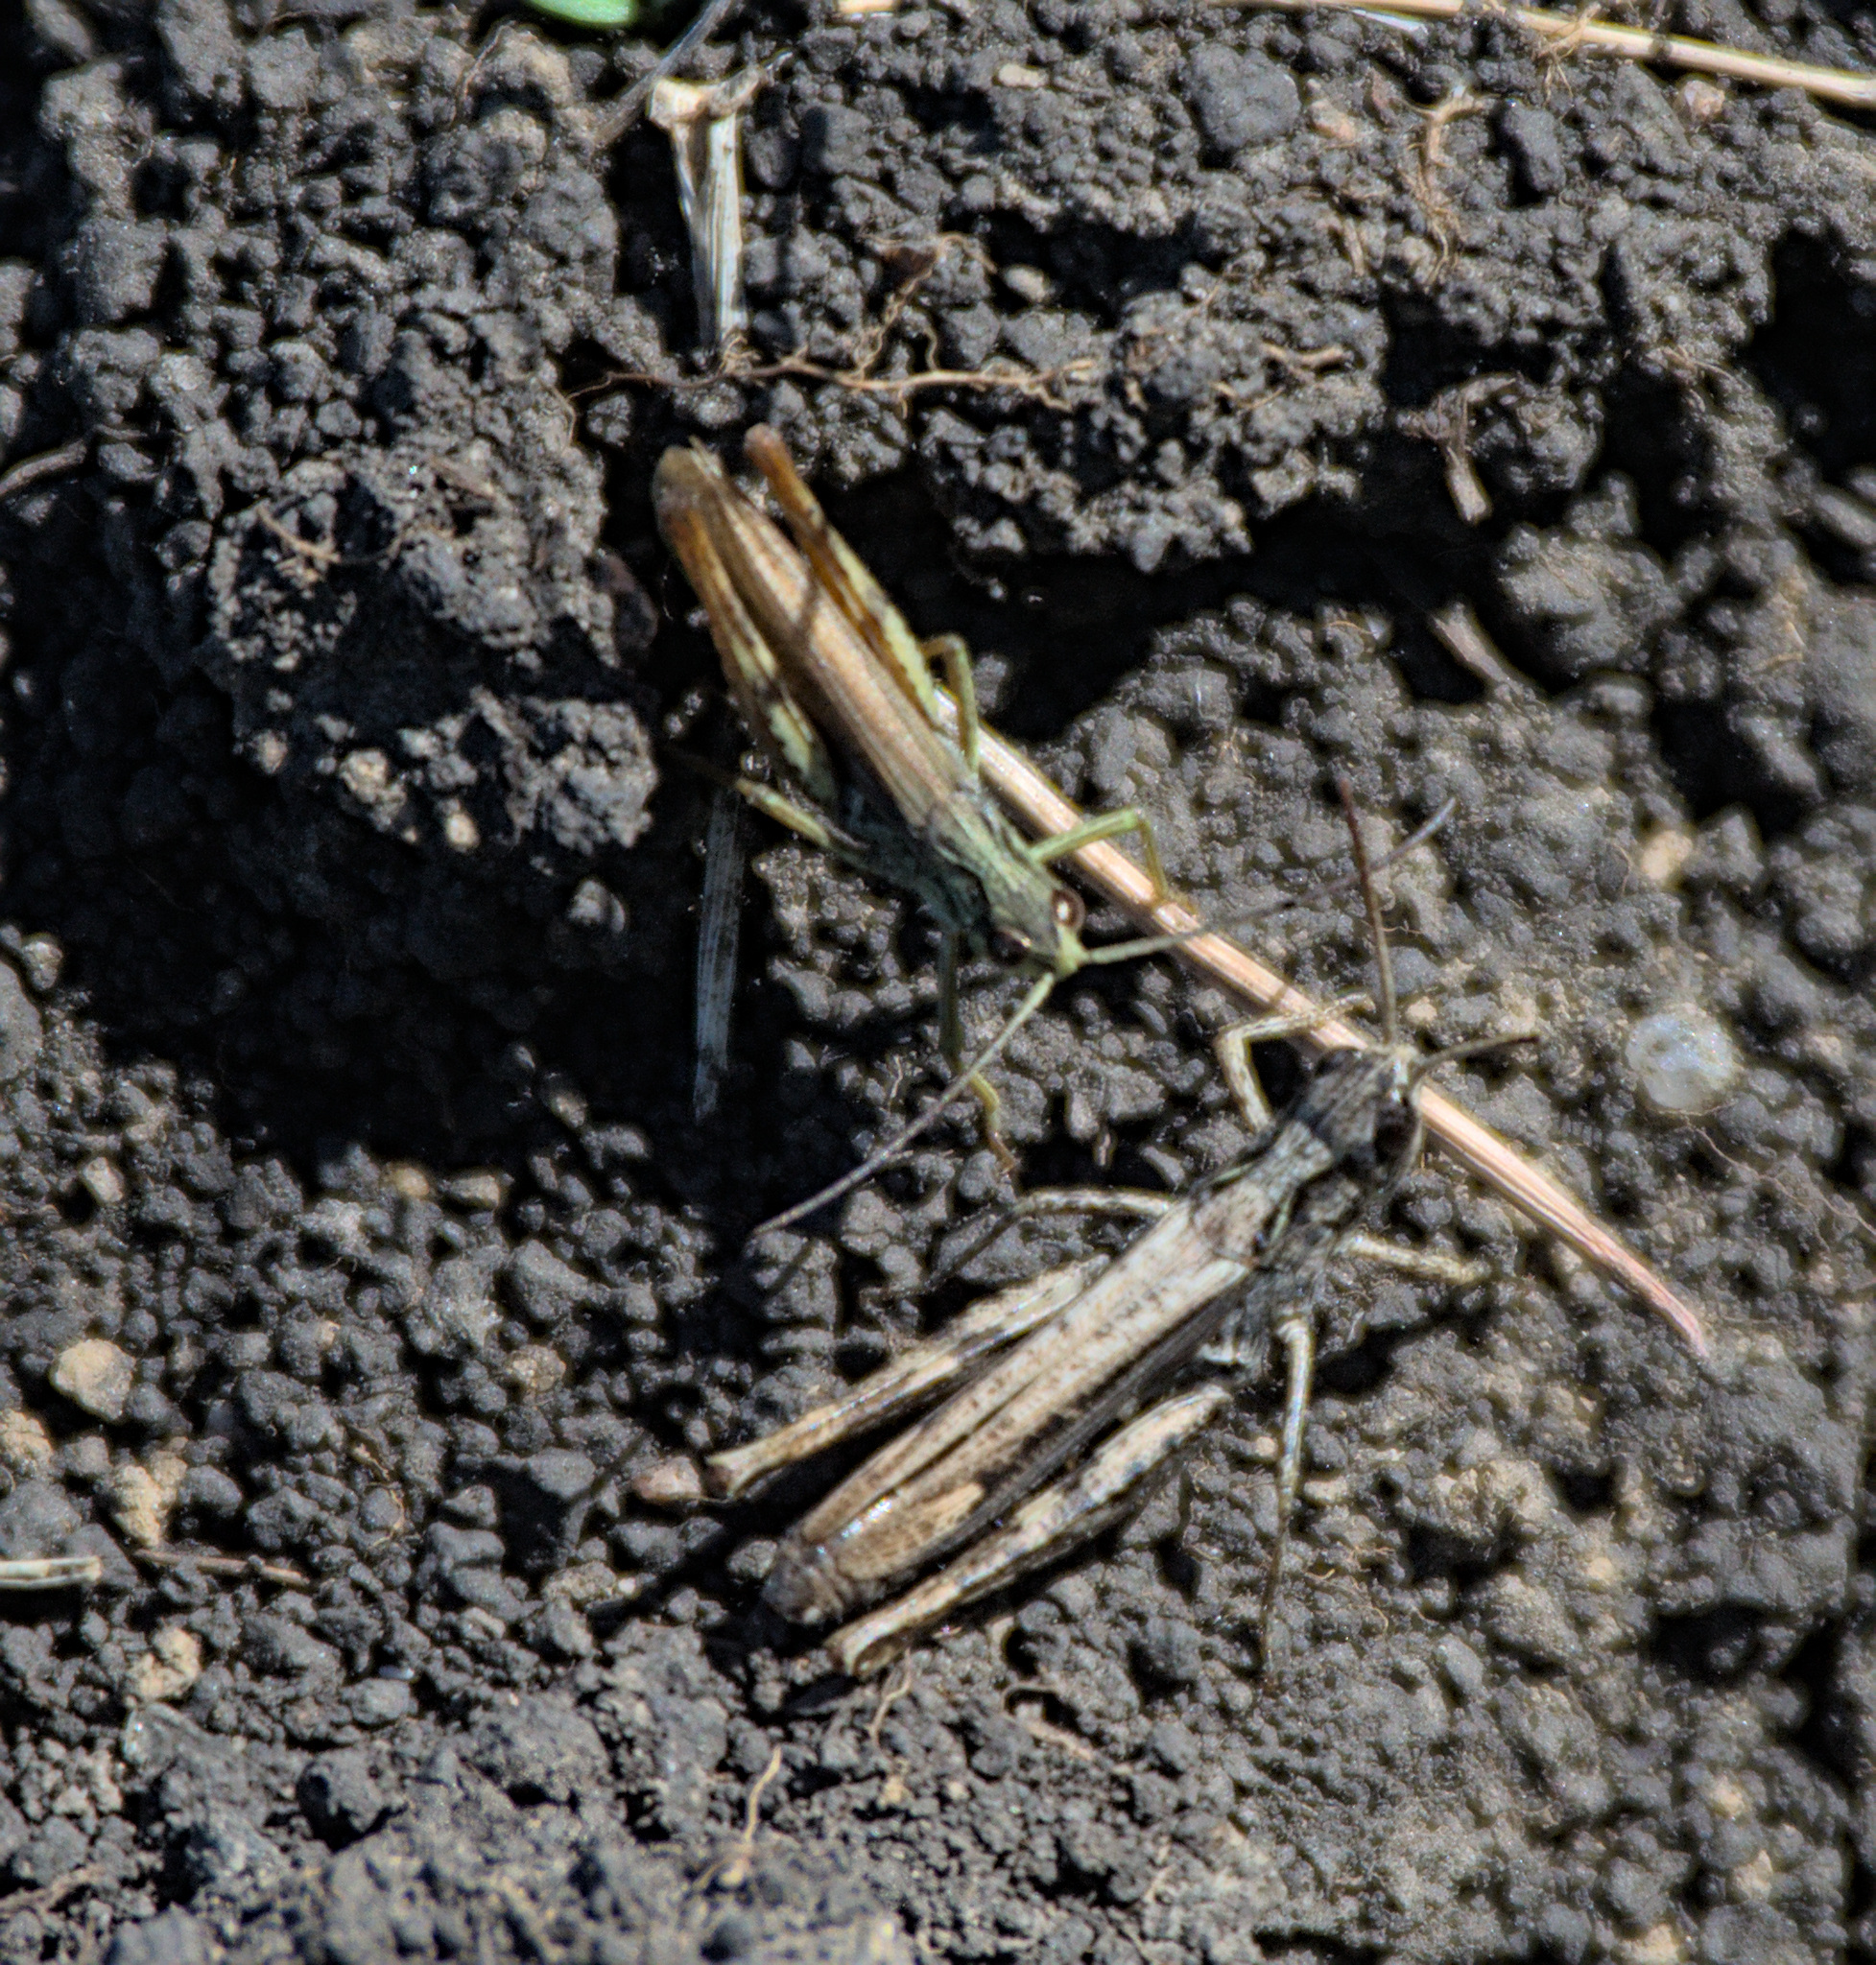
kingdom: Animalia
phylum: Arthropoda
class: Insecta
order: Orthoptera
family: Acrididae
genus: Chorthippus
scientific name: Chorthippus apricarius
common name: Upland field grasshopper
